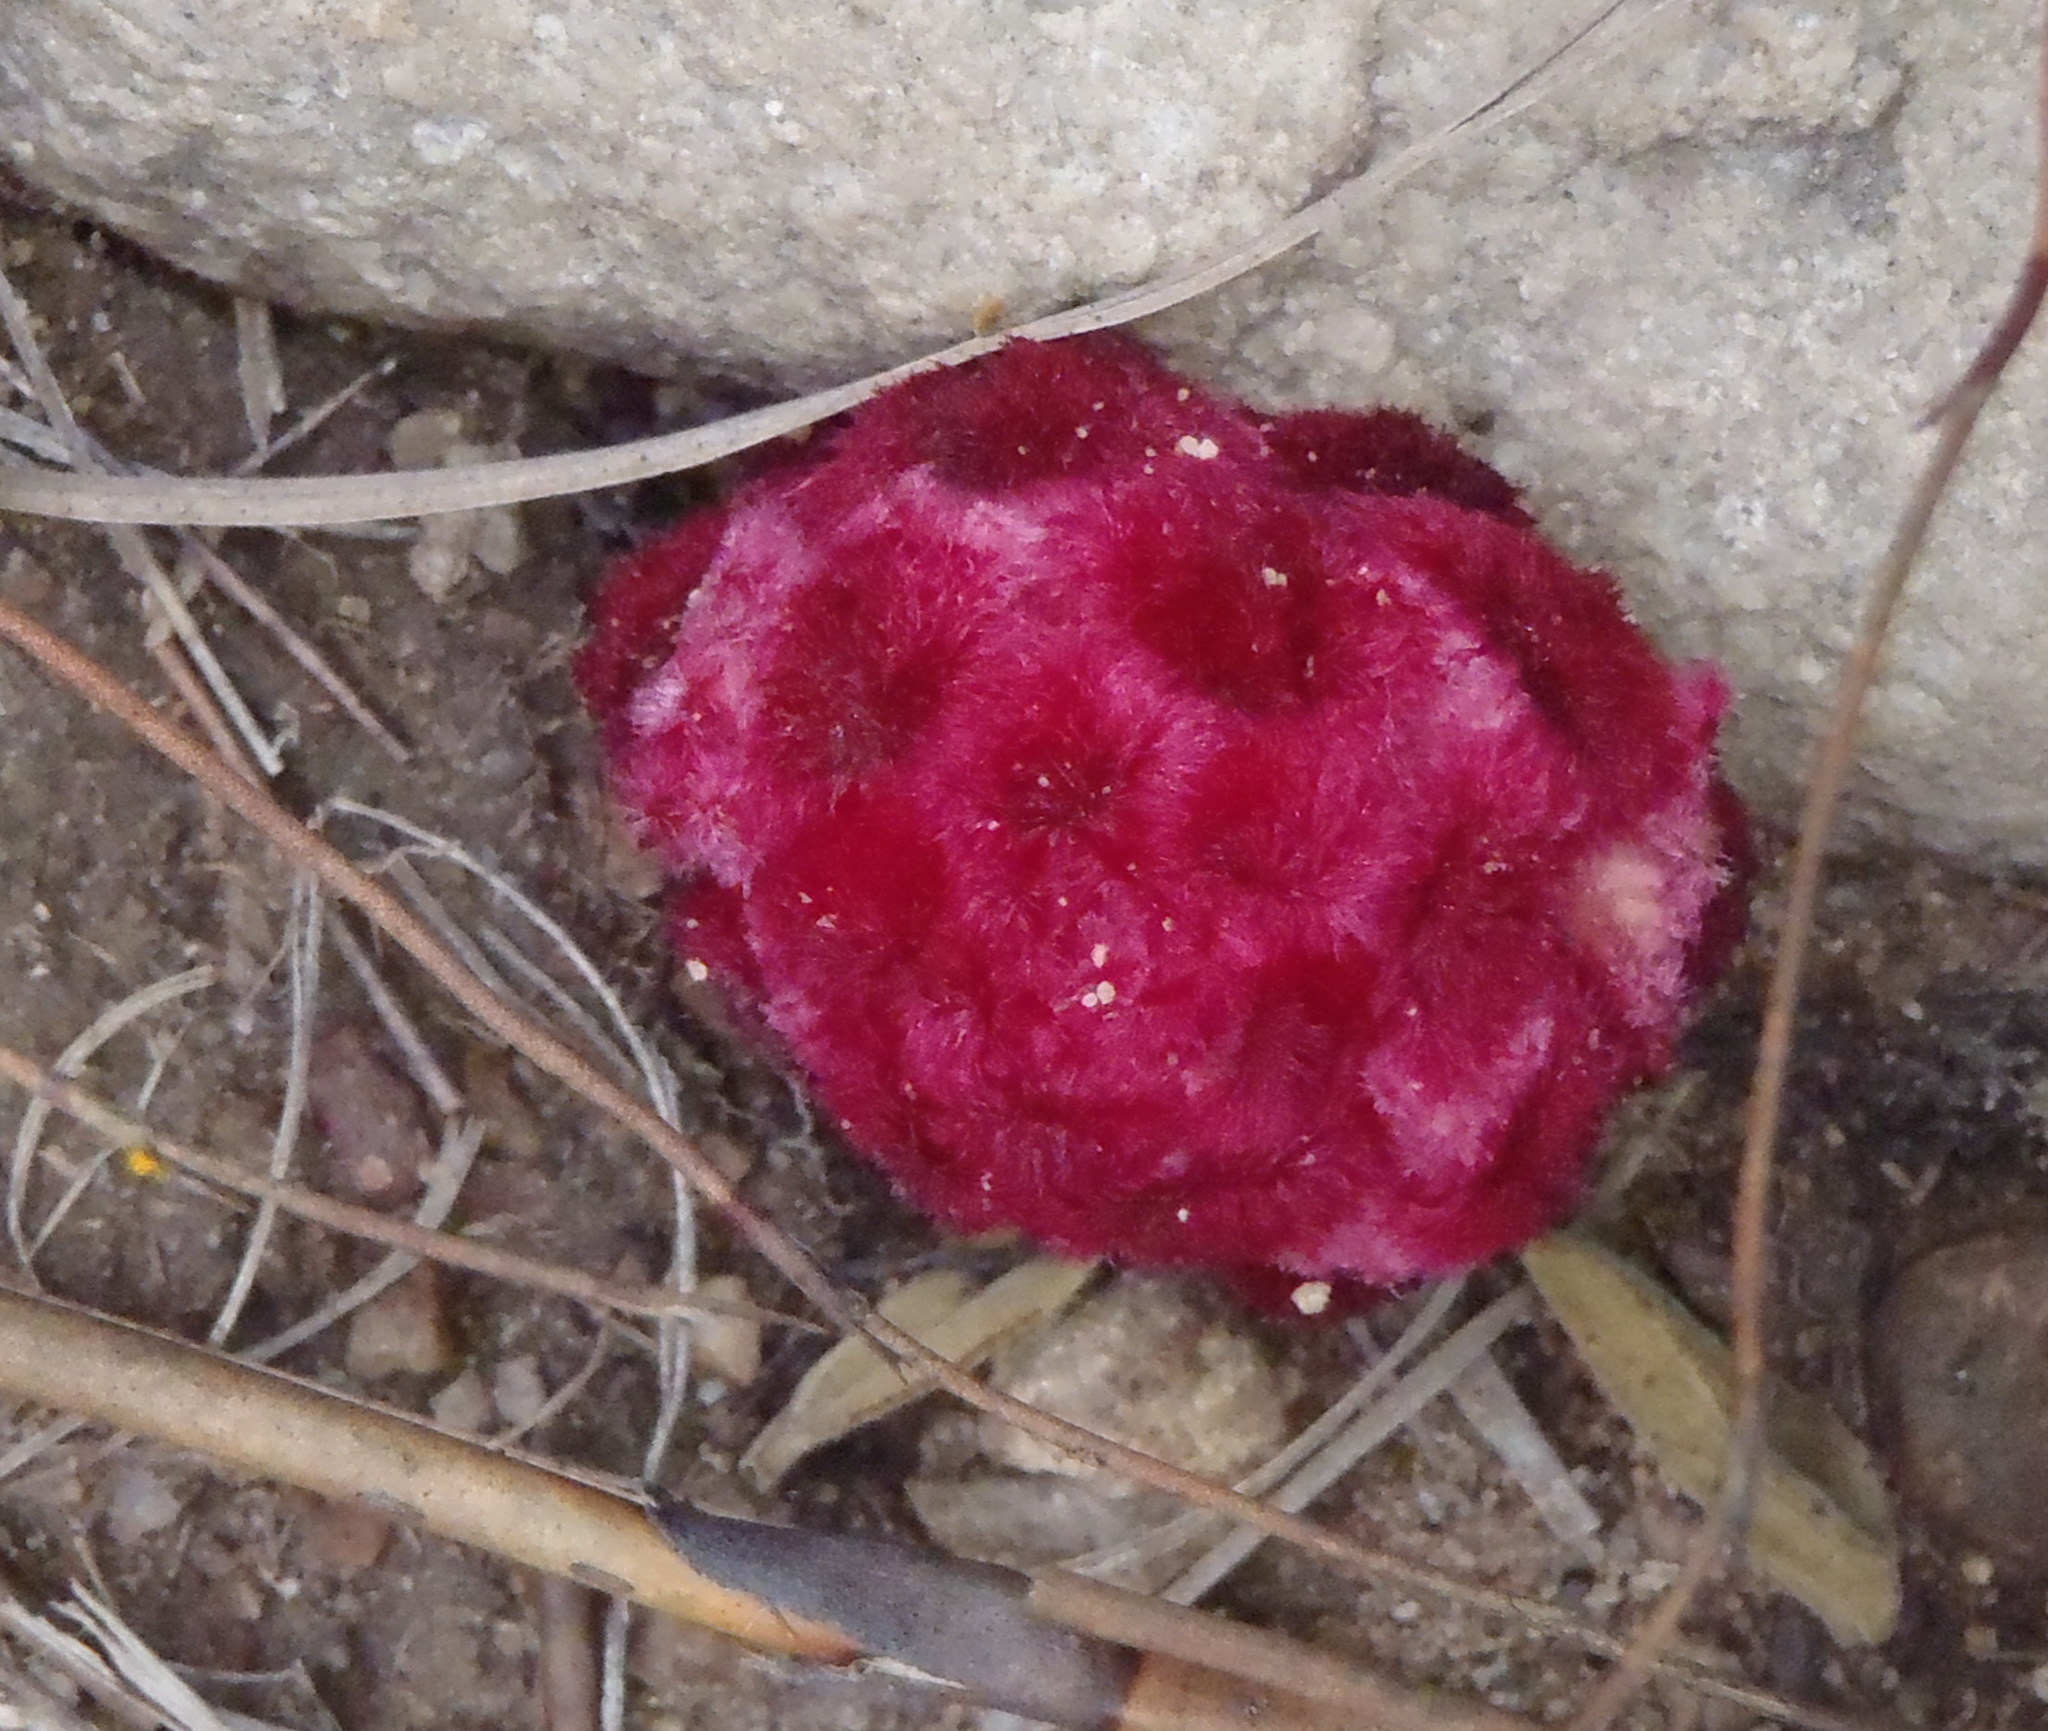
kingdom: Plantae
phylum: Tracheophyta
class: Magnoliopsida
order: Lamiales
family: Orobanchaceae
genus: Hyobanche
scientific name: Hyobanche sanguinea
